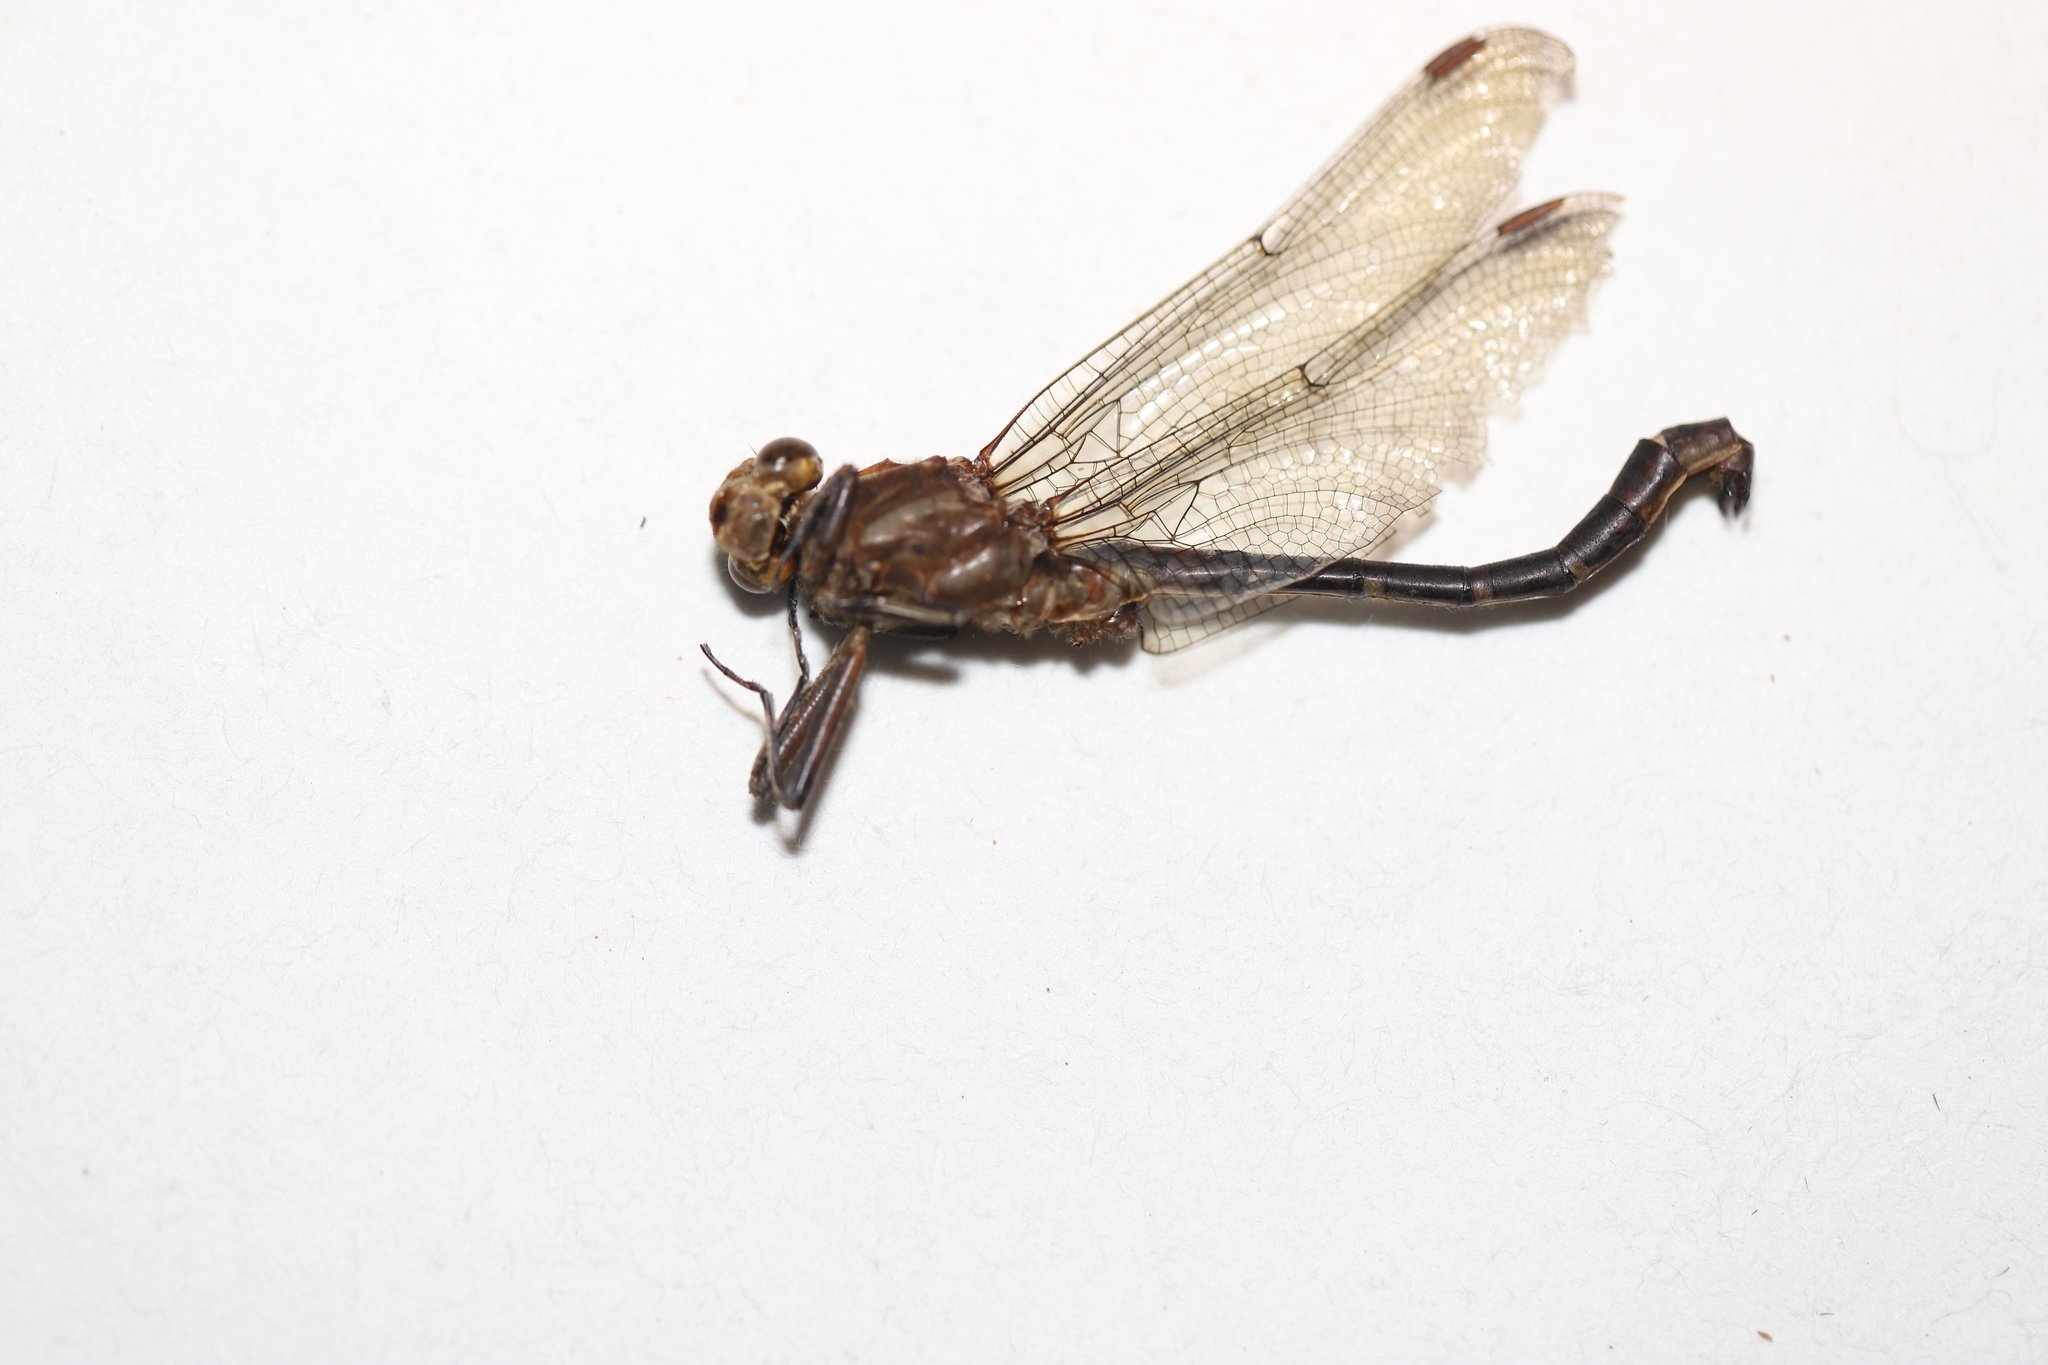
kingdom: Animalia
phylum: Arthropoda
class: Insecta
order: Odonata
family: Gomphidae
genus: Phanogomphus
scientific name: Phanogomphus lividus
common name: Ashy clubtail
